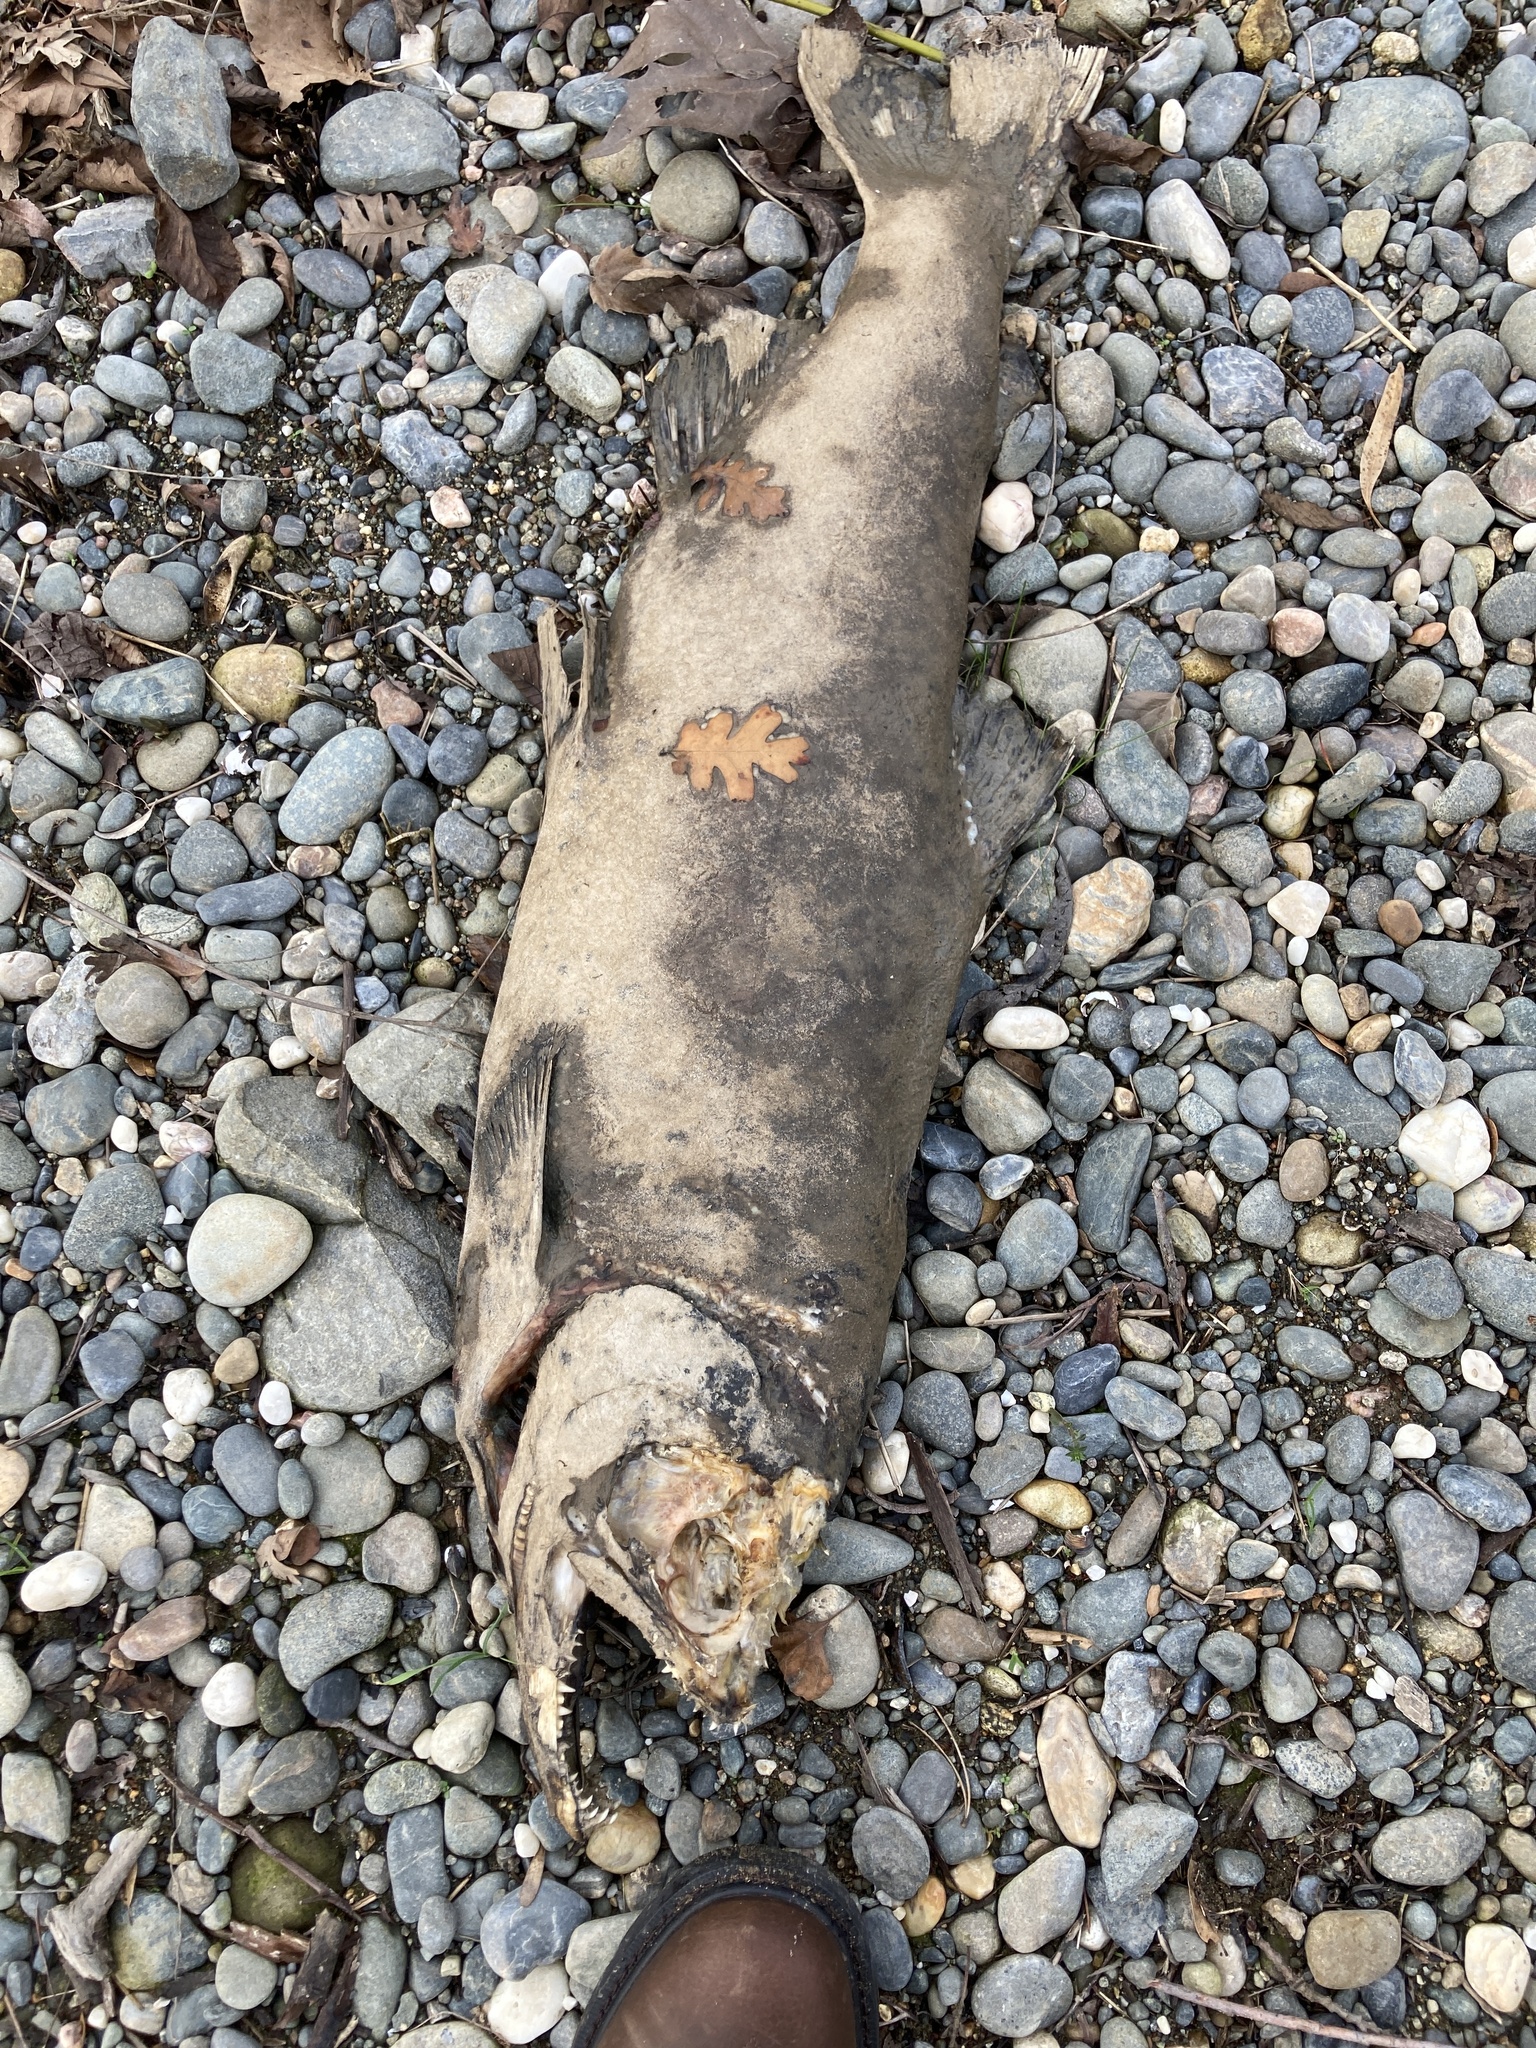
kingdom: Animalia
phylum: Chordata
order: Salmoniformes
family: Salmonidae
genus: Oncorhynchus
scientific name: Oncorhynchus tshawytscha
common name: Chinook salmon
